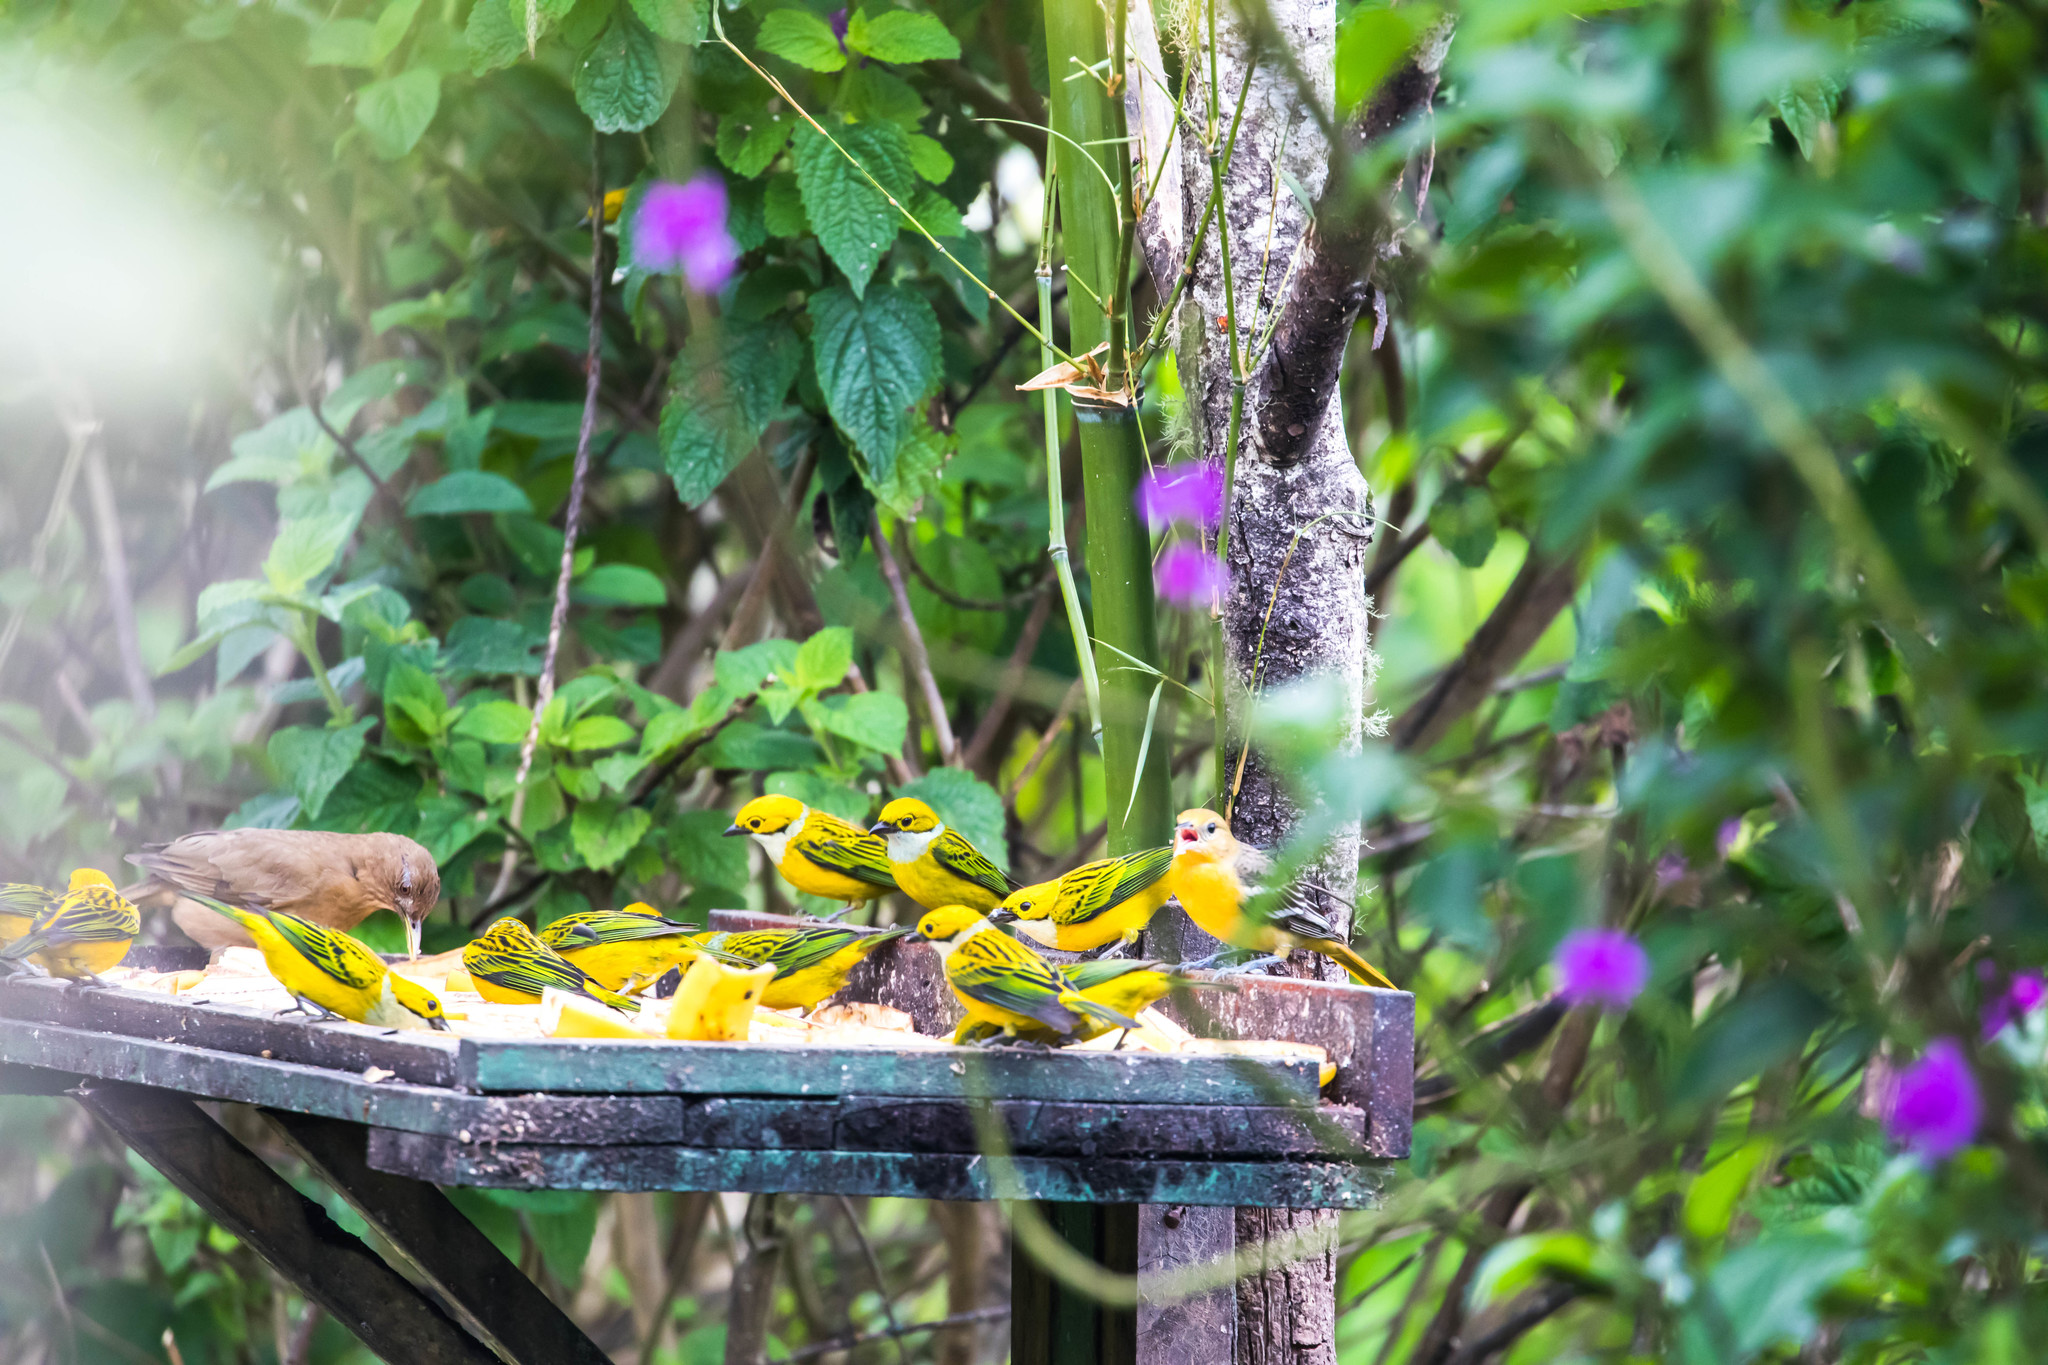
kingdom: Animalia
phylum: Chordata
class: Aves
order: Passeriformes
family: Thraupidae
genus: Tangara
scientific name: Tangara icterocephala
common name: Silver-throated tanager
